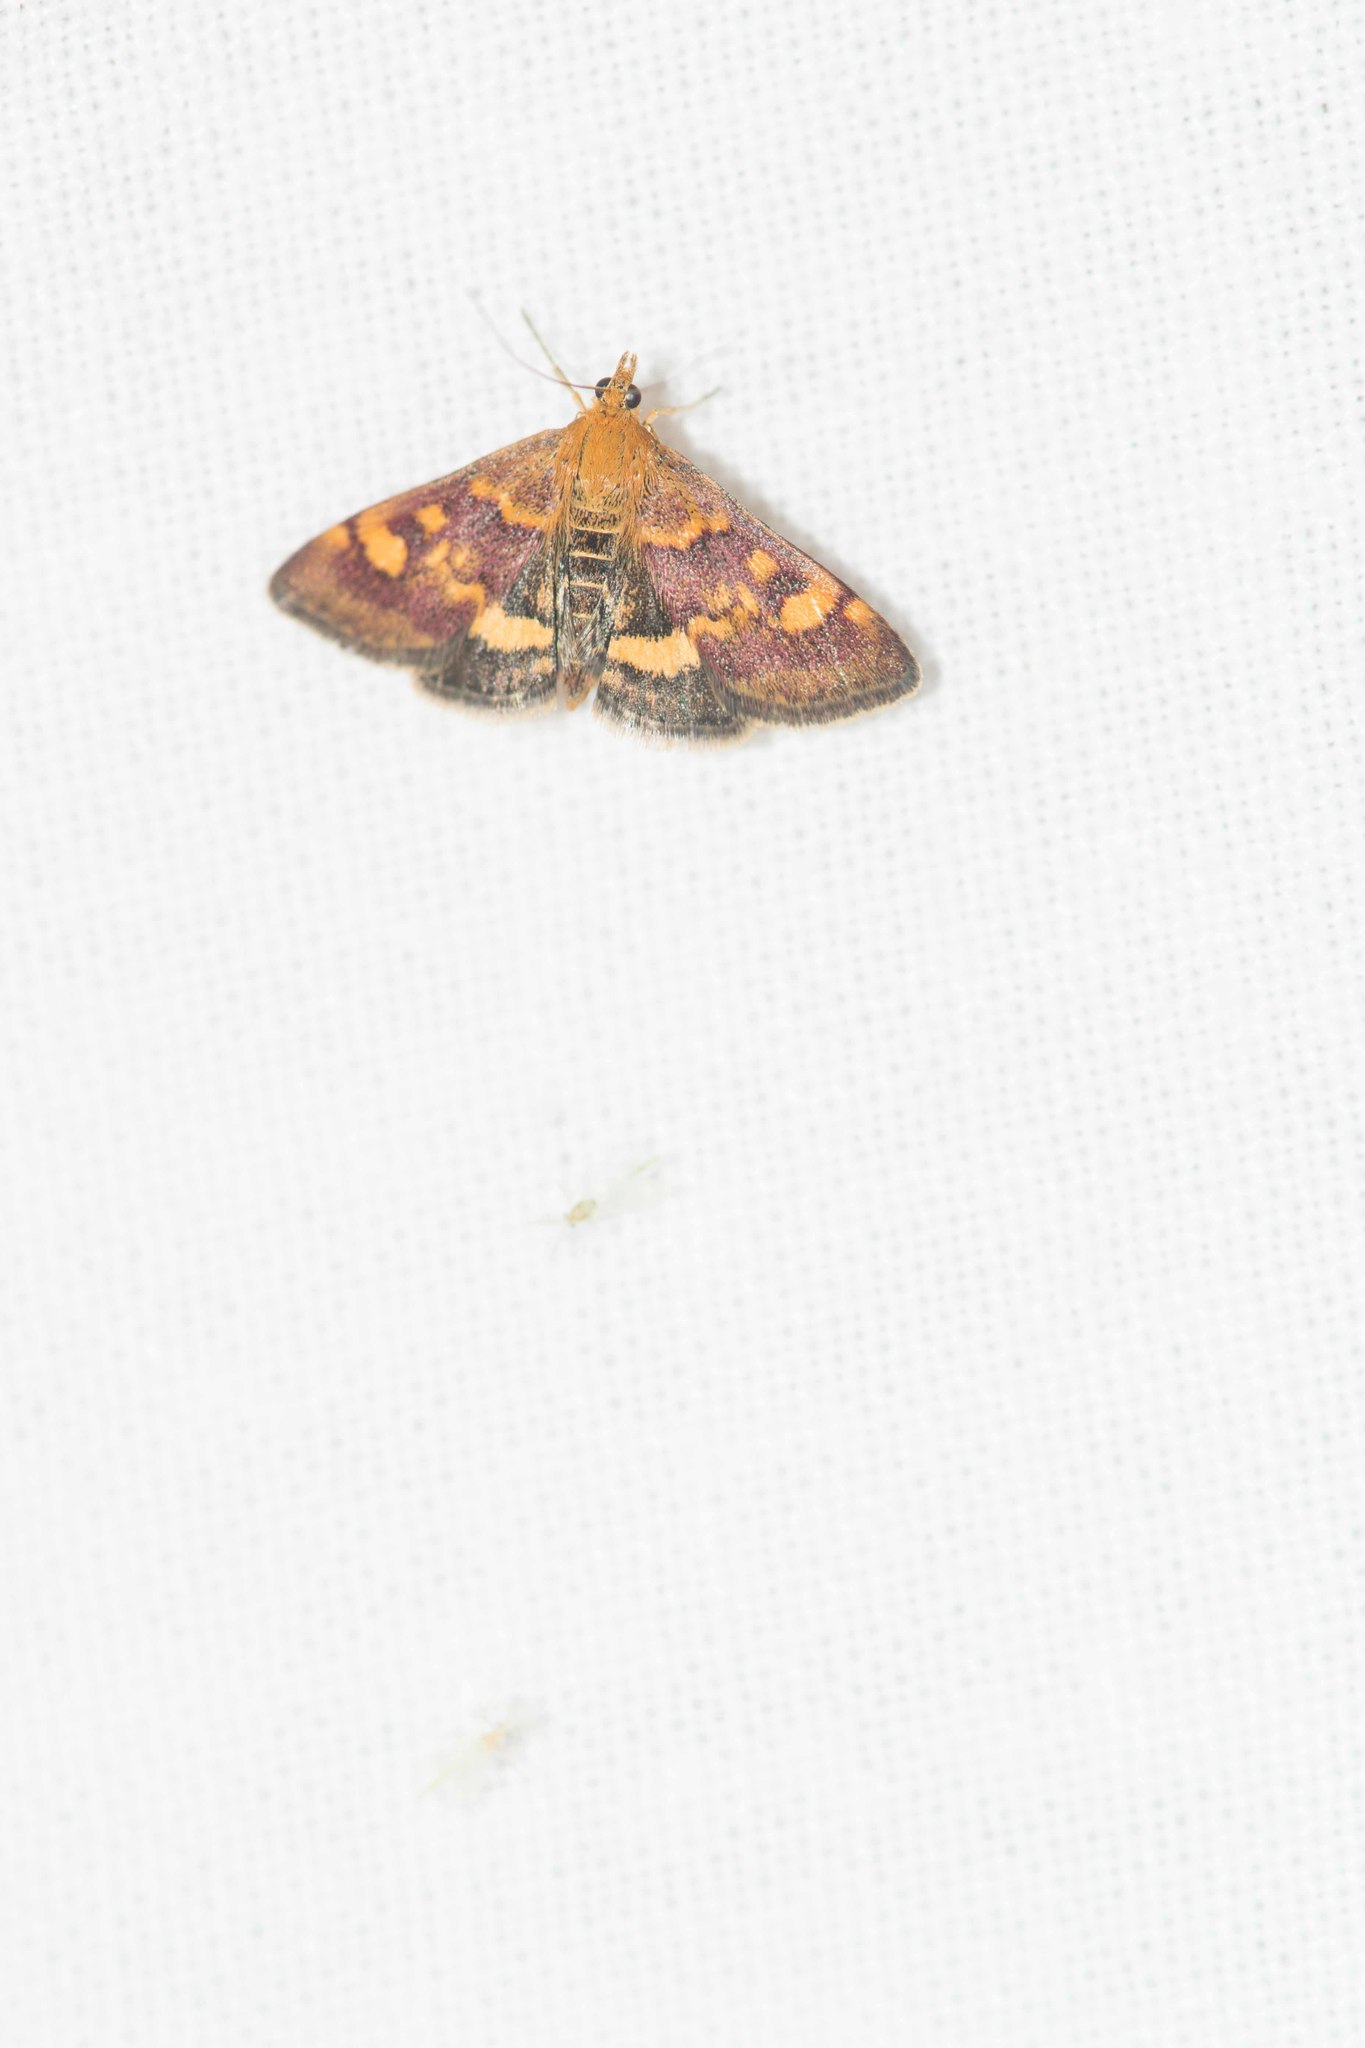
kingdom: Animalia
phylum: Arthropoda
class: Insecta
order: Lepidoptera
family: Crambidae
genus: Pyrausta
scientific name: Pyrausta aurata
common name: Small purple & gold
